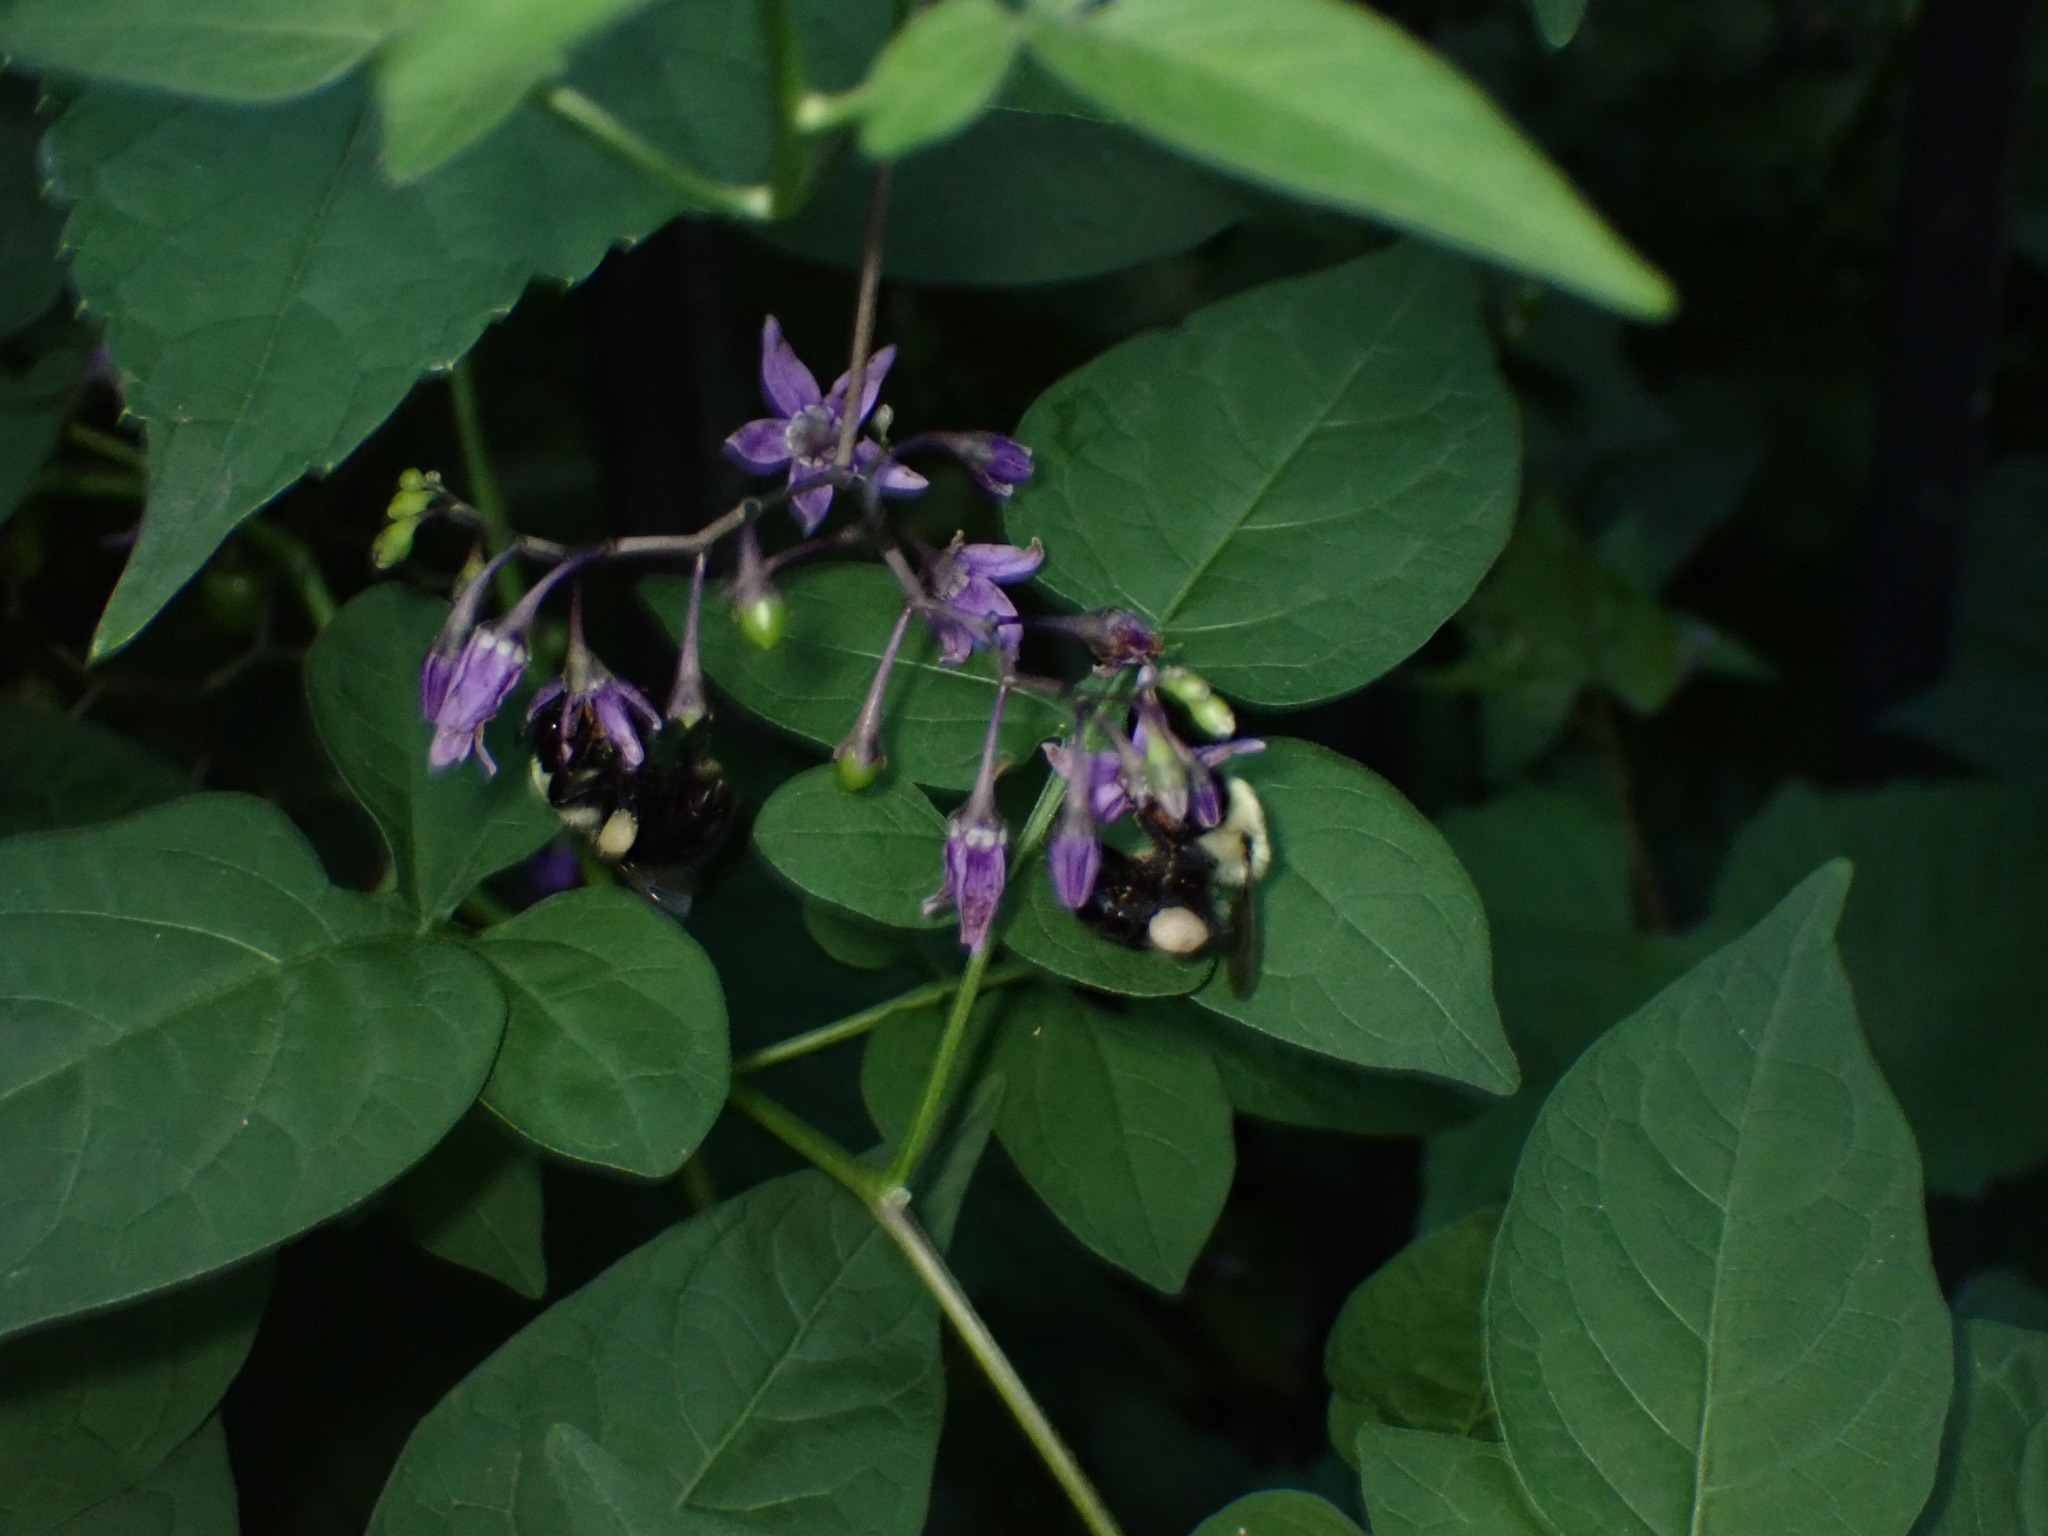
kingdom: Animalia
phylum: Arthropoda
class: Insecta
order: Hymenoptera
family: Apidae
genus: Bombus
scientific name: Bombus impatiens
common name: Common eastern bumble bee
